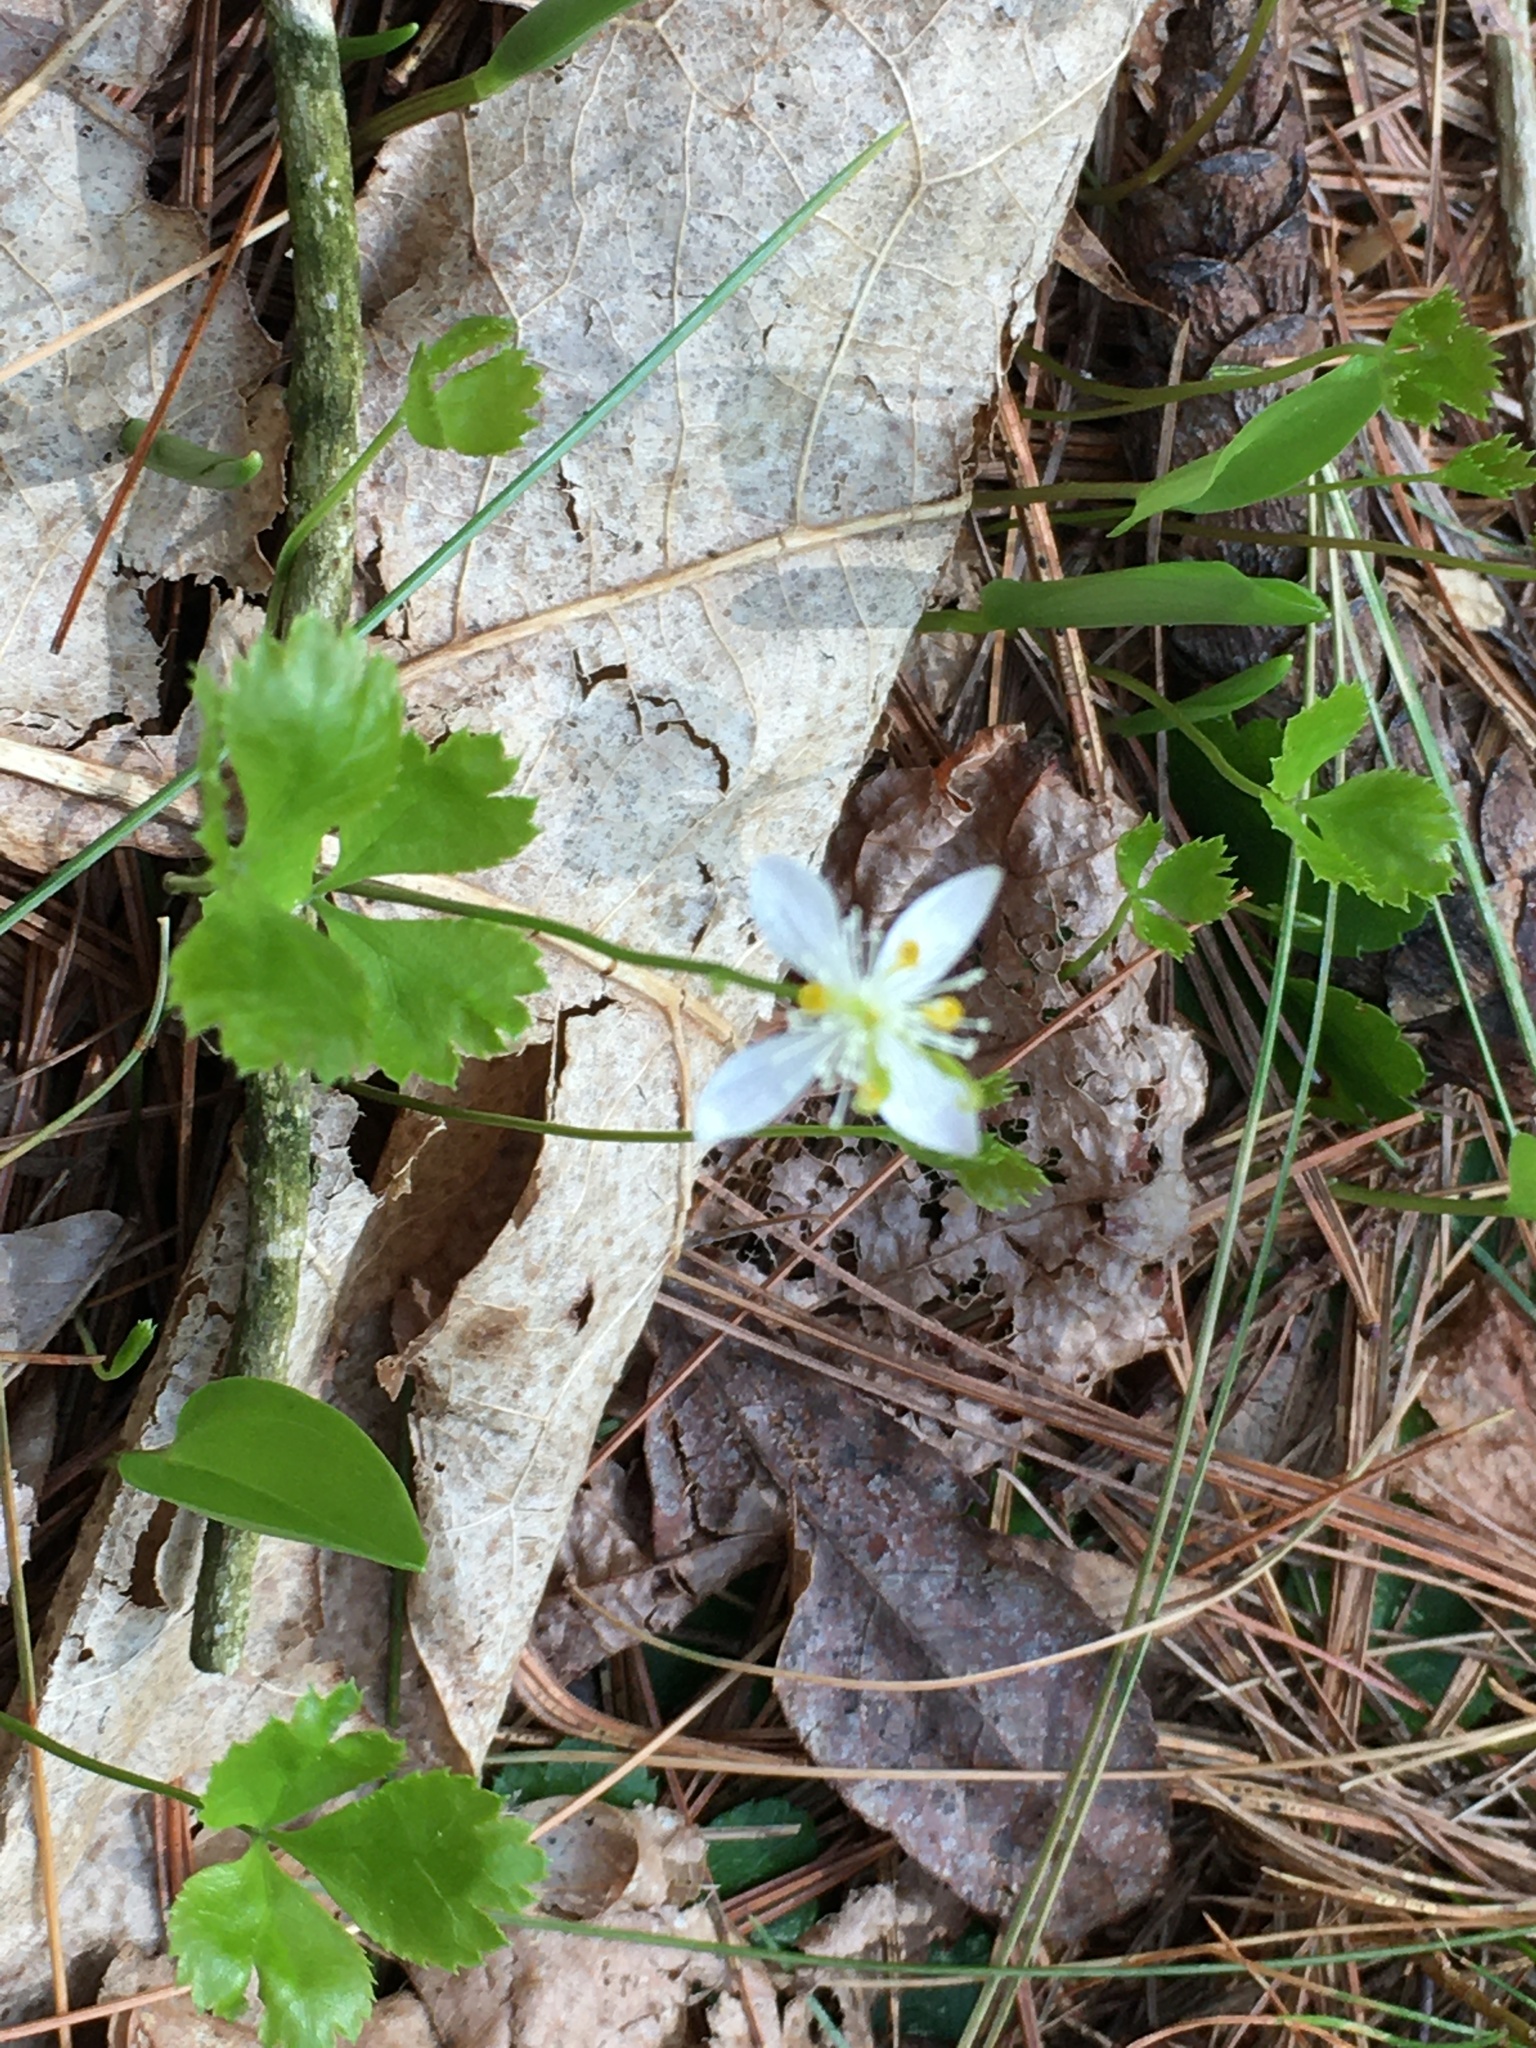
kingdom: Plantae
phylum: Tracheophyta
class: Magnoliopsida
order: Ranunculales
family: Ranunculaceae
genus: Coptis
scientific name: Coptis trifolia
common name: Canker-root
